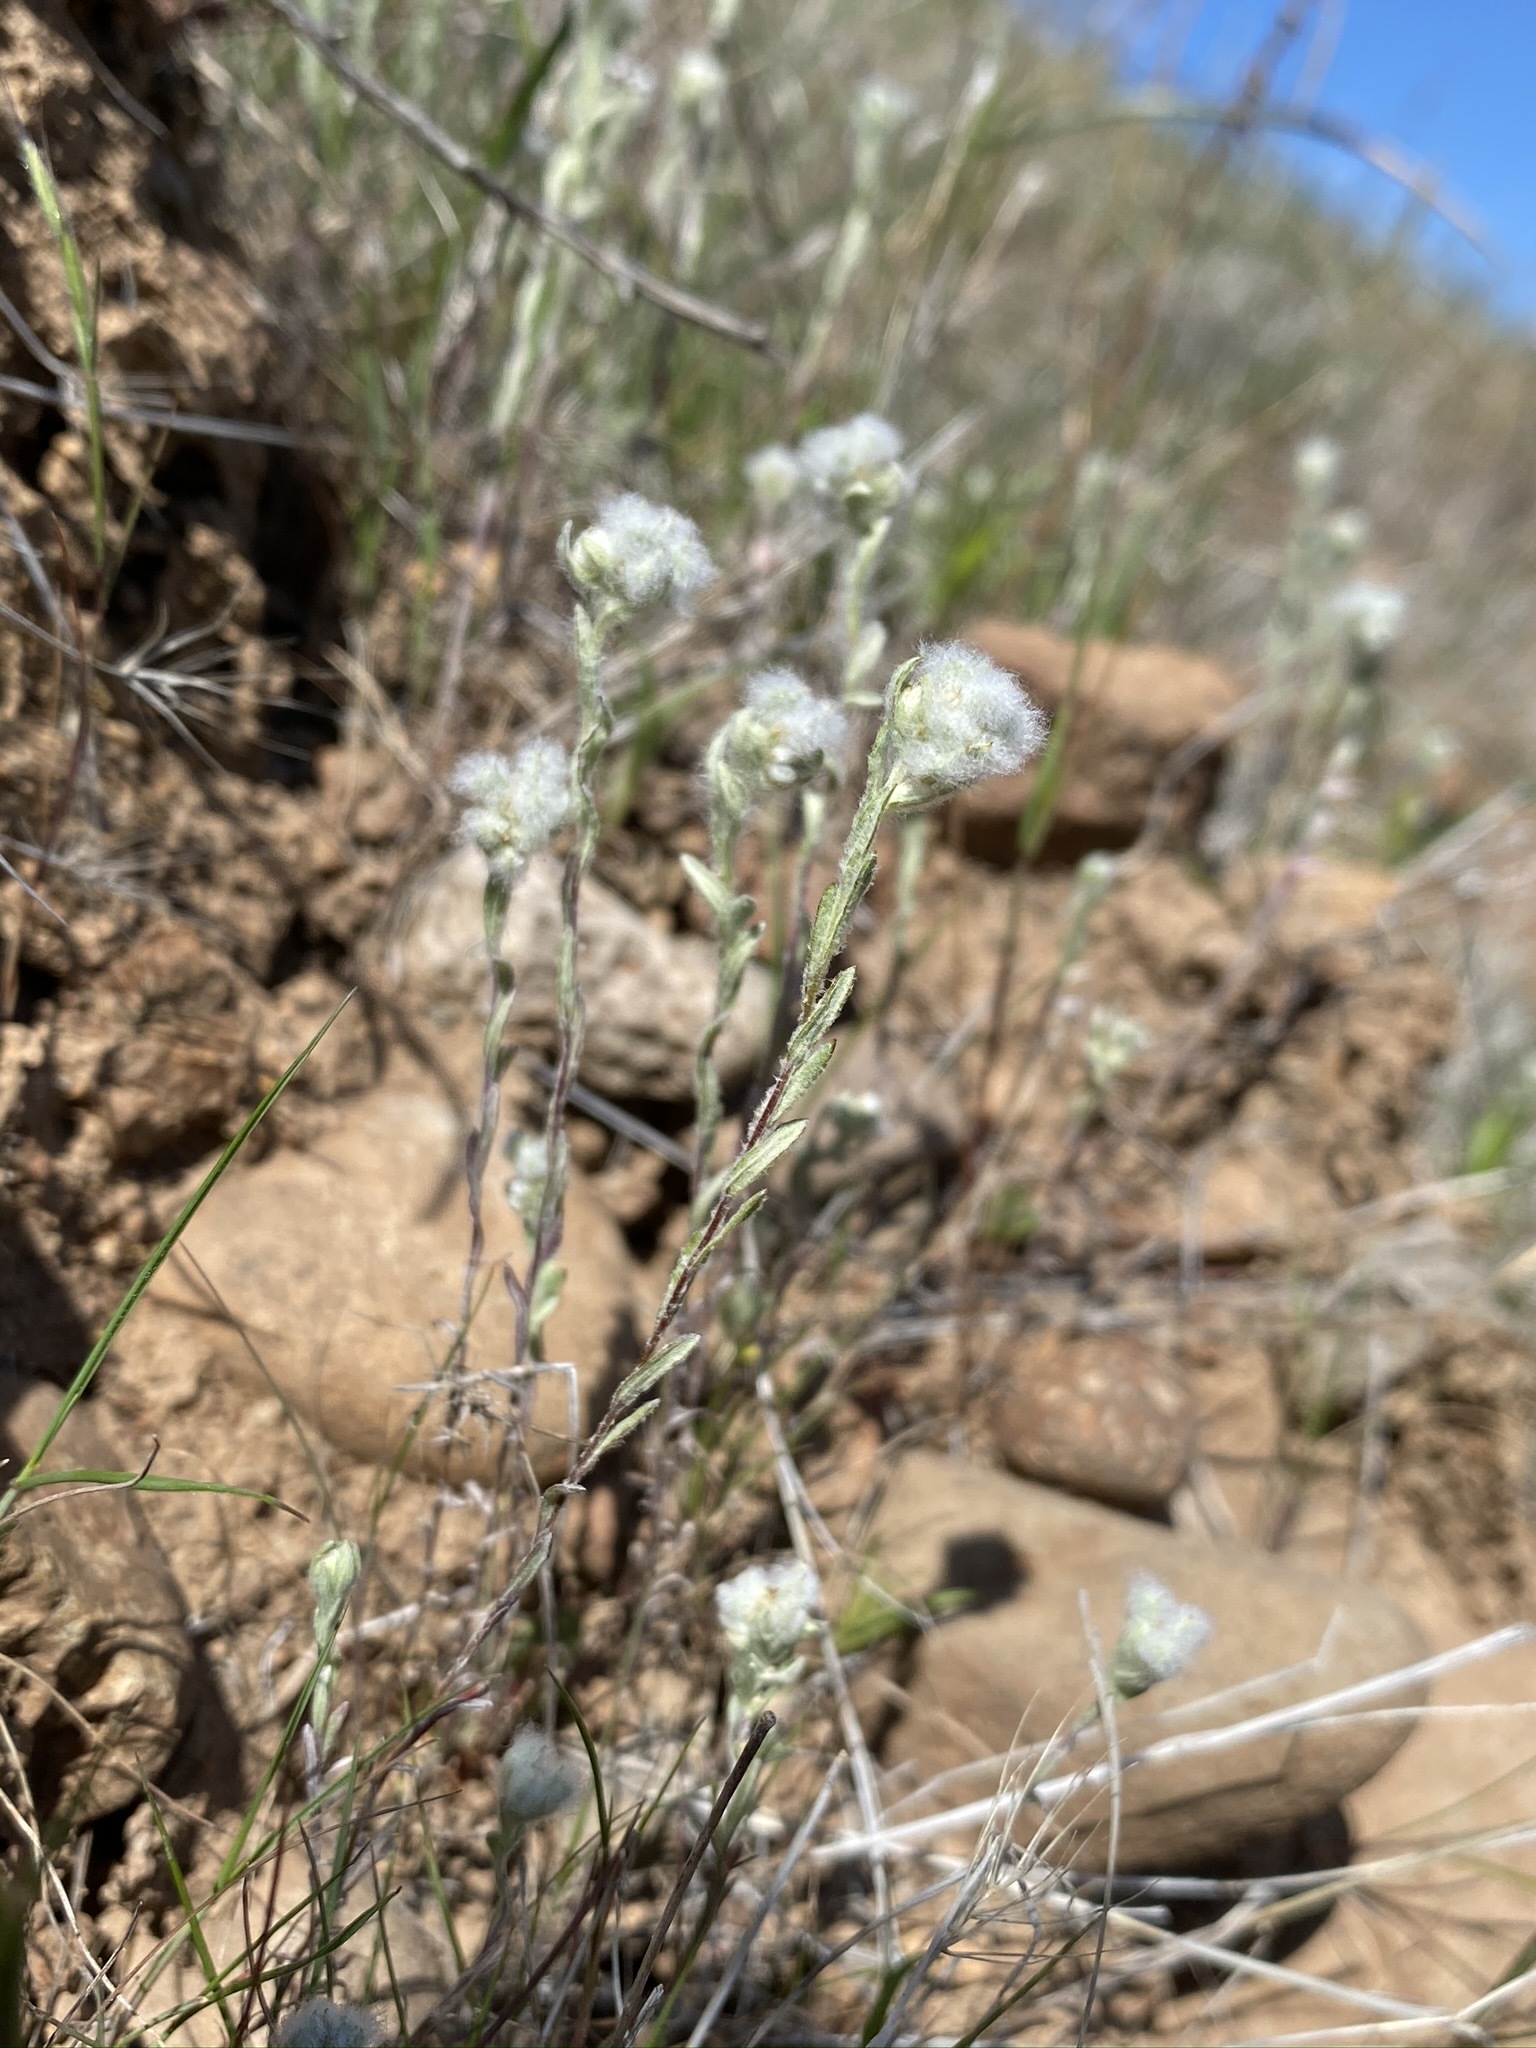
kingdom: Plantae
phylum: Tracheophyta
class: Magnoliopsida
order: Asterales
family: Asteraceae
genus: Bombycilaena
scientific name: Bombycilaena californica
